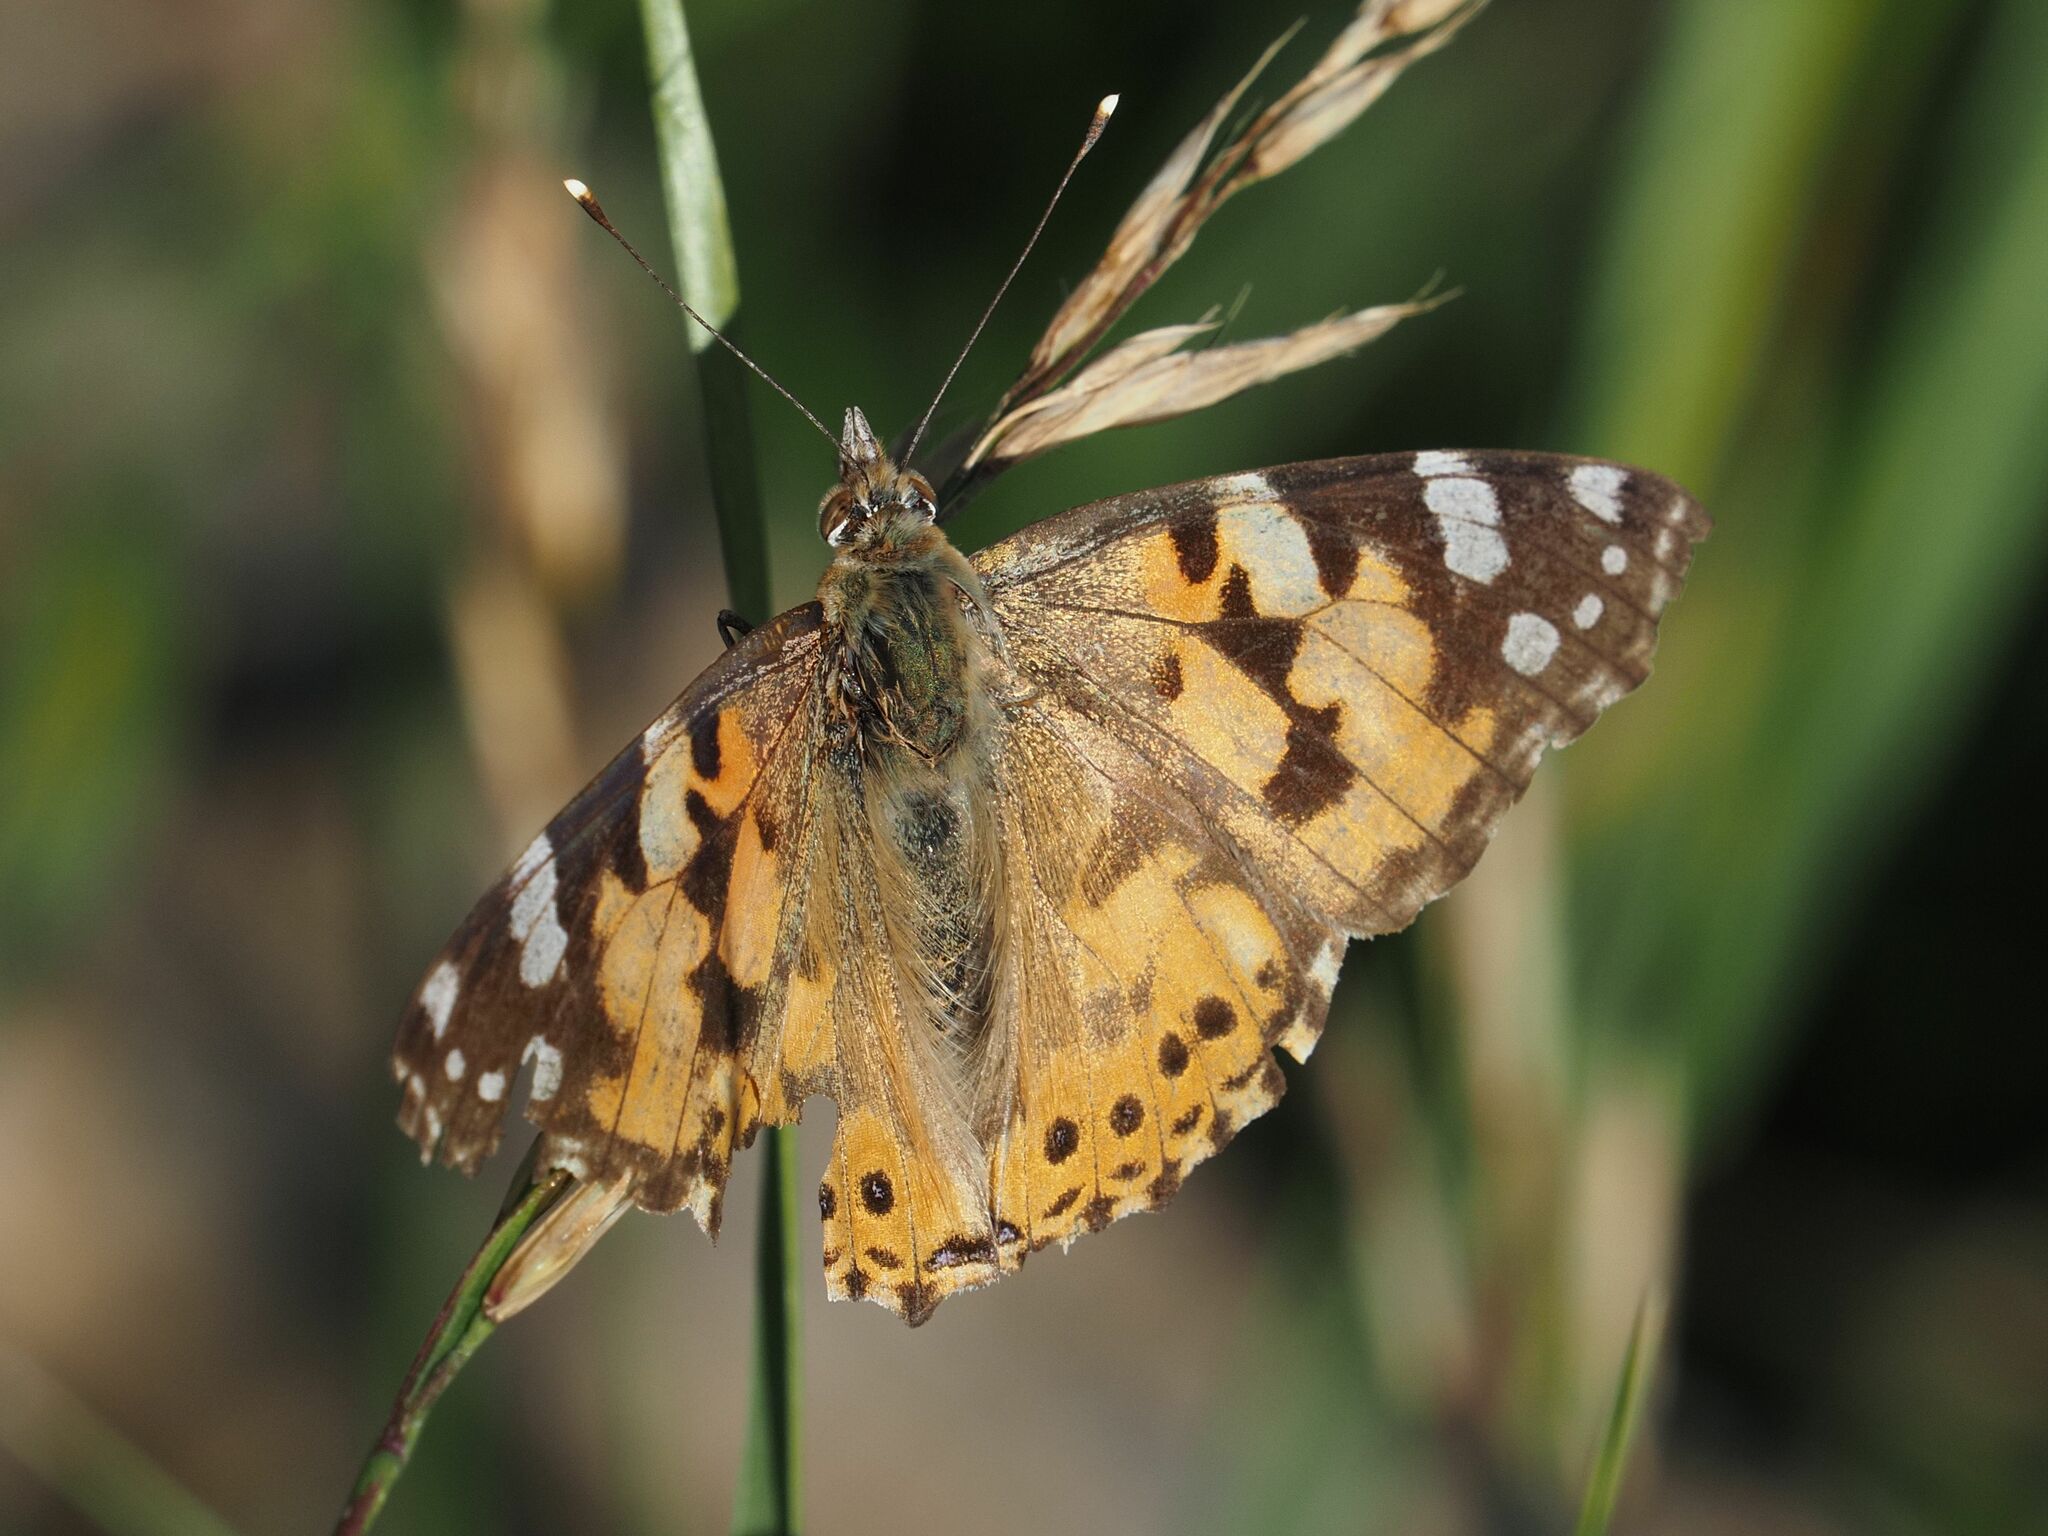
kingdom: Animalia
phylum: Arthropoda
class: Insecta
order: Lepidoptera
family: Nymphalidae
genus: Vanessa
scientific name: Vanessa cardui
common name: Painted lady
